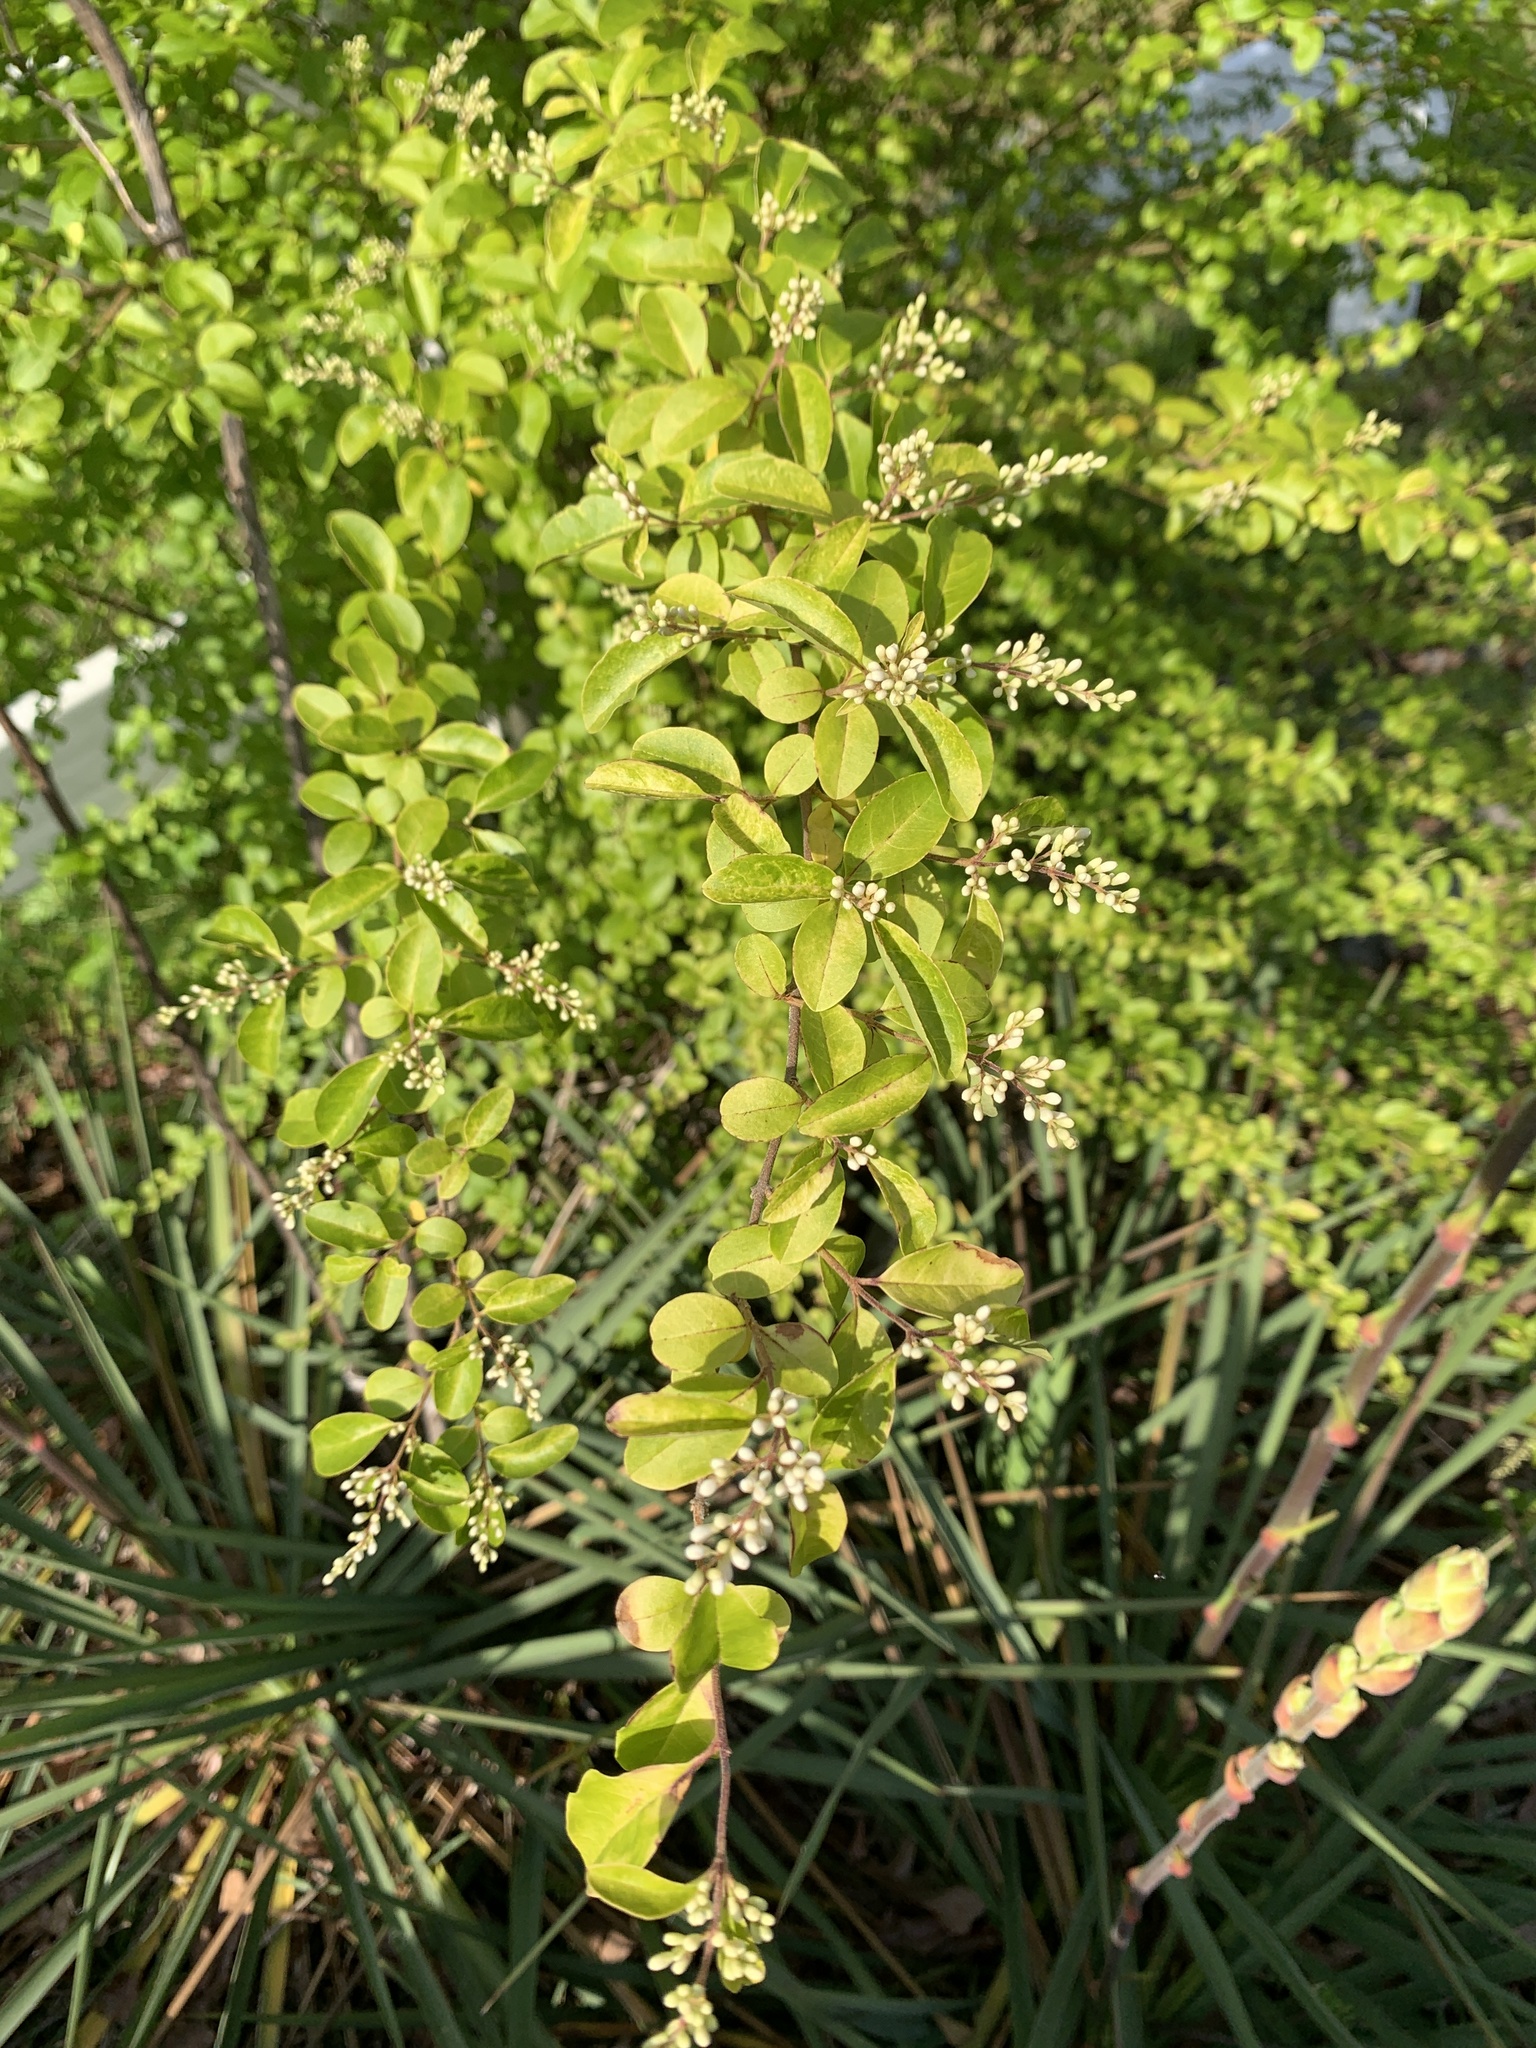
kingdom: Plantae
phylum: Tracheophyta
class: Magnoliopsida
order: Lamiales
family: Oleaceae
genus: Ligustrum
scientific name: Ligustrum sinense
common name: Chinese privet
